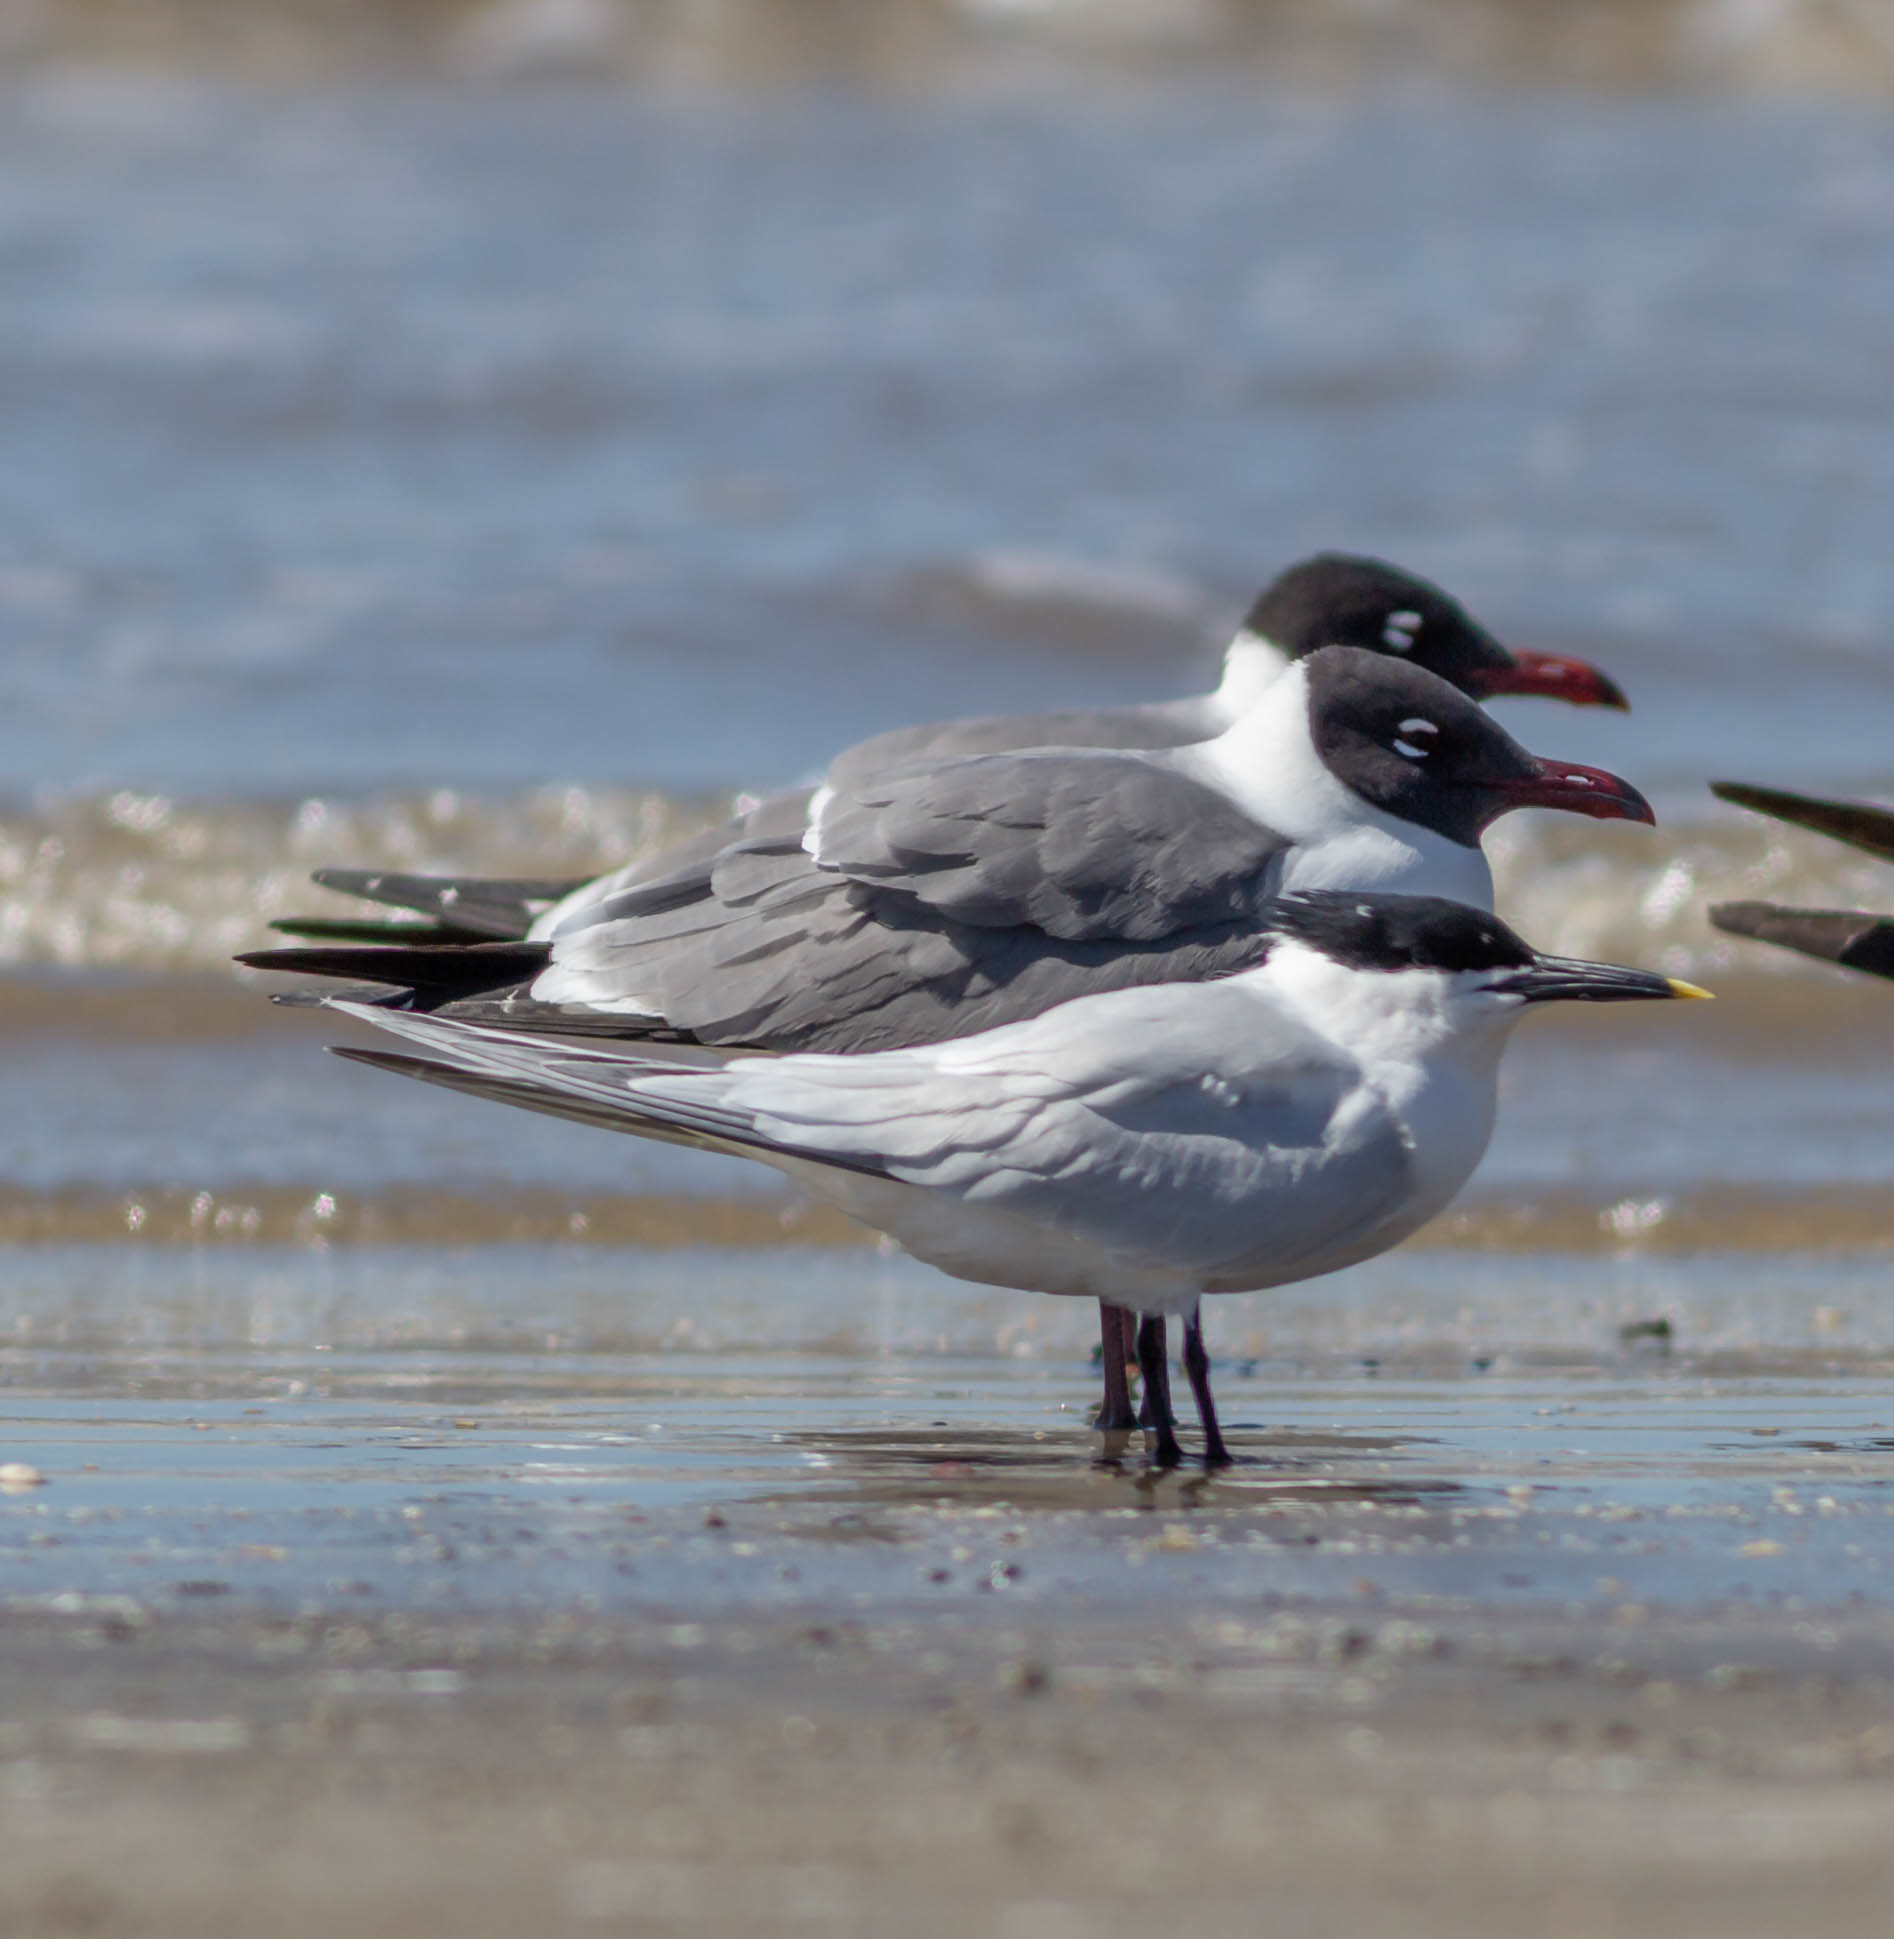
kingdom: Animalia
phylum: Chordata
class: Aves
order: Charadriiformes
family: Laridae
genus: Leucophaeus
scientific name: Leucophaeus atricilla
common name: Laughing gull
